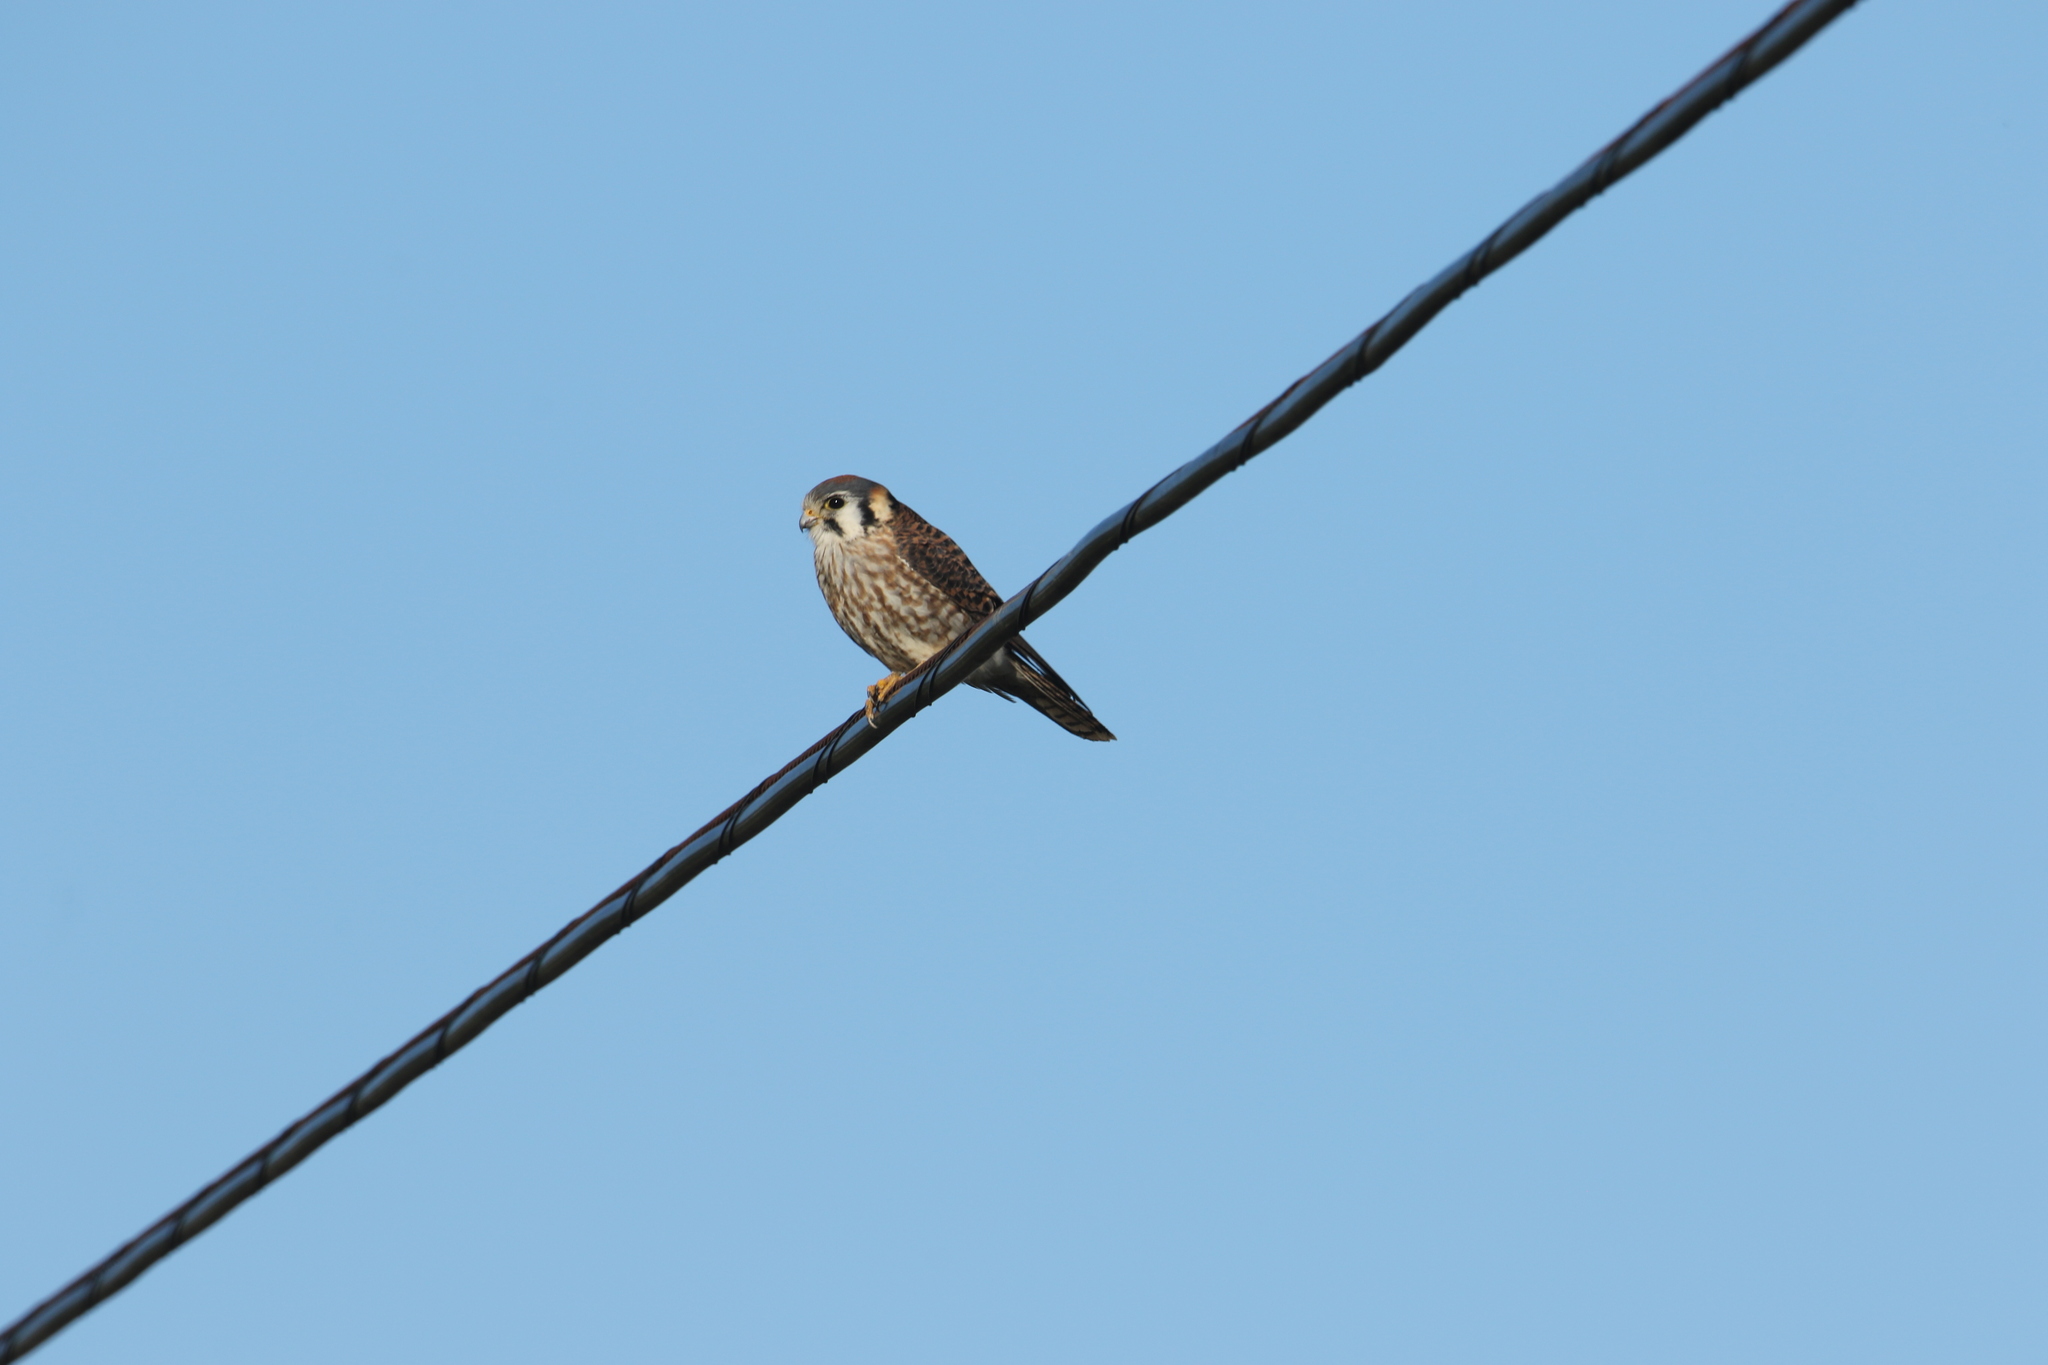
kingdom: Animalia
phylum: Chordata
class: Aves
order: Falconiformes
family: Falconidae
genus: Falco
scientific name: Falco sparverius
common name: American kestrel
